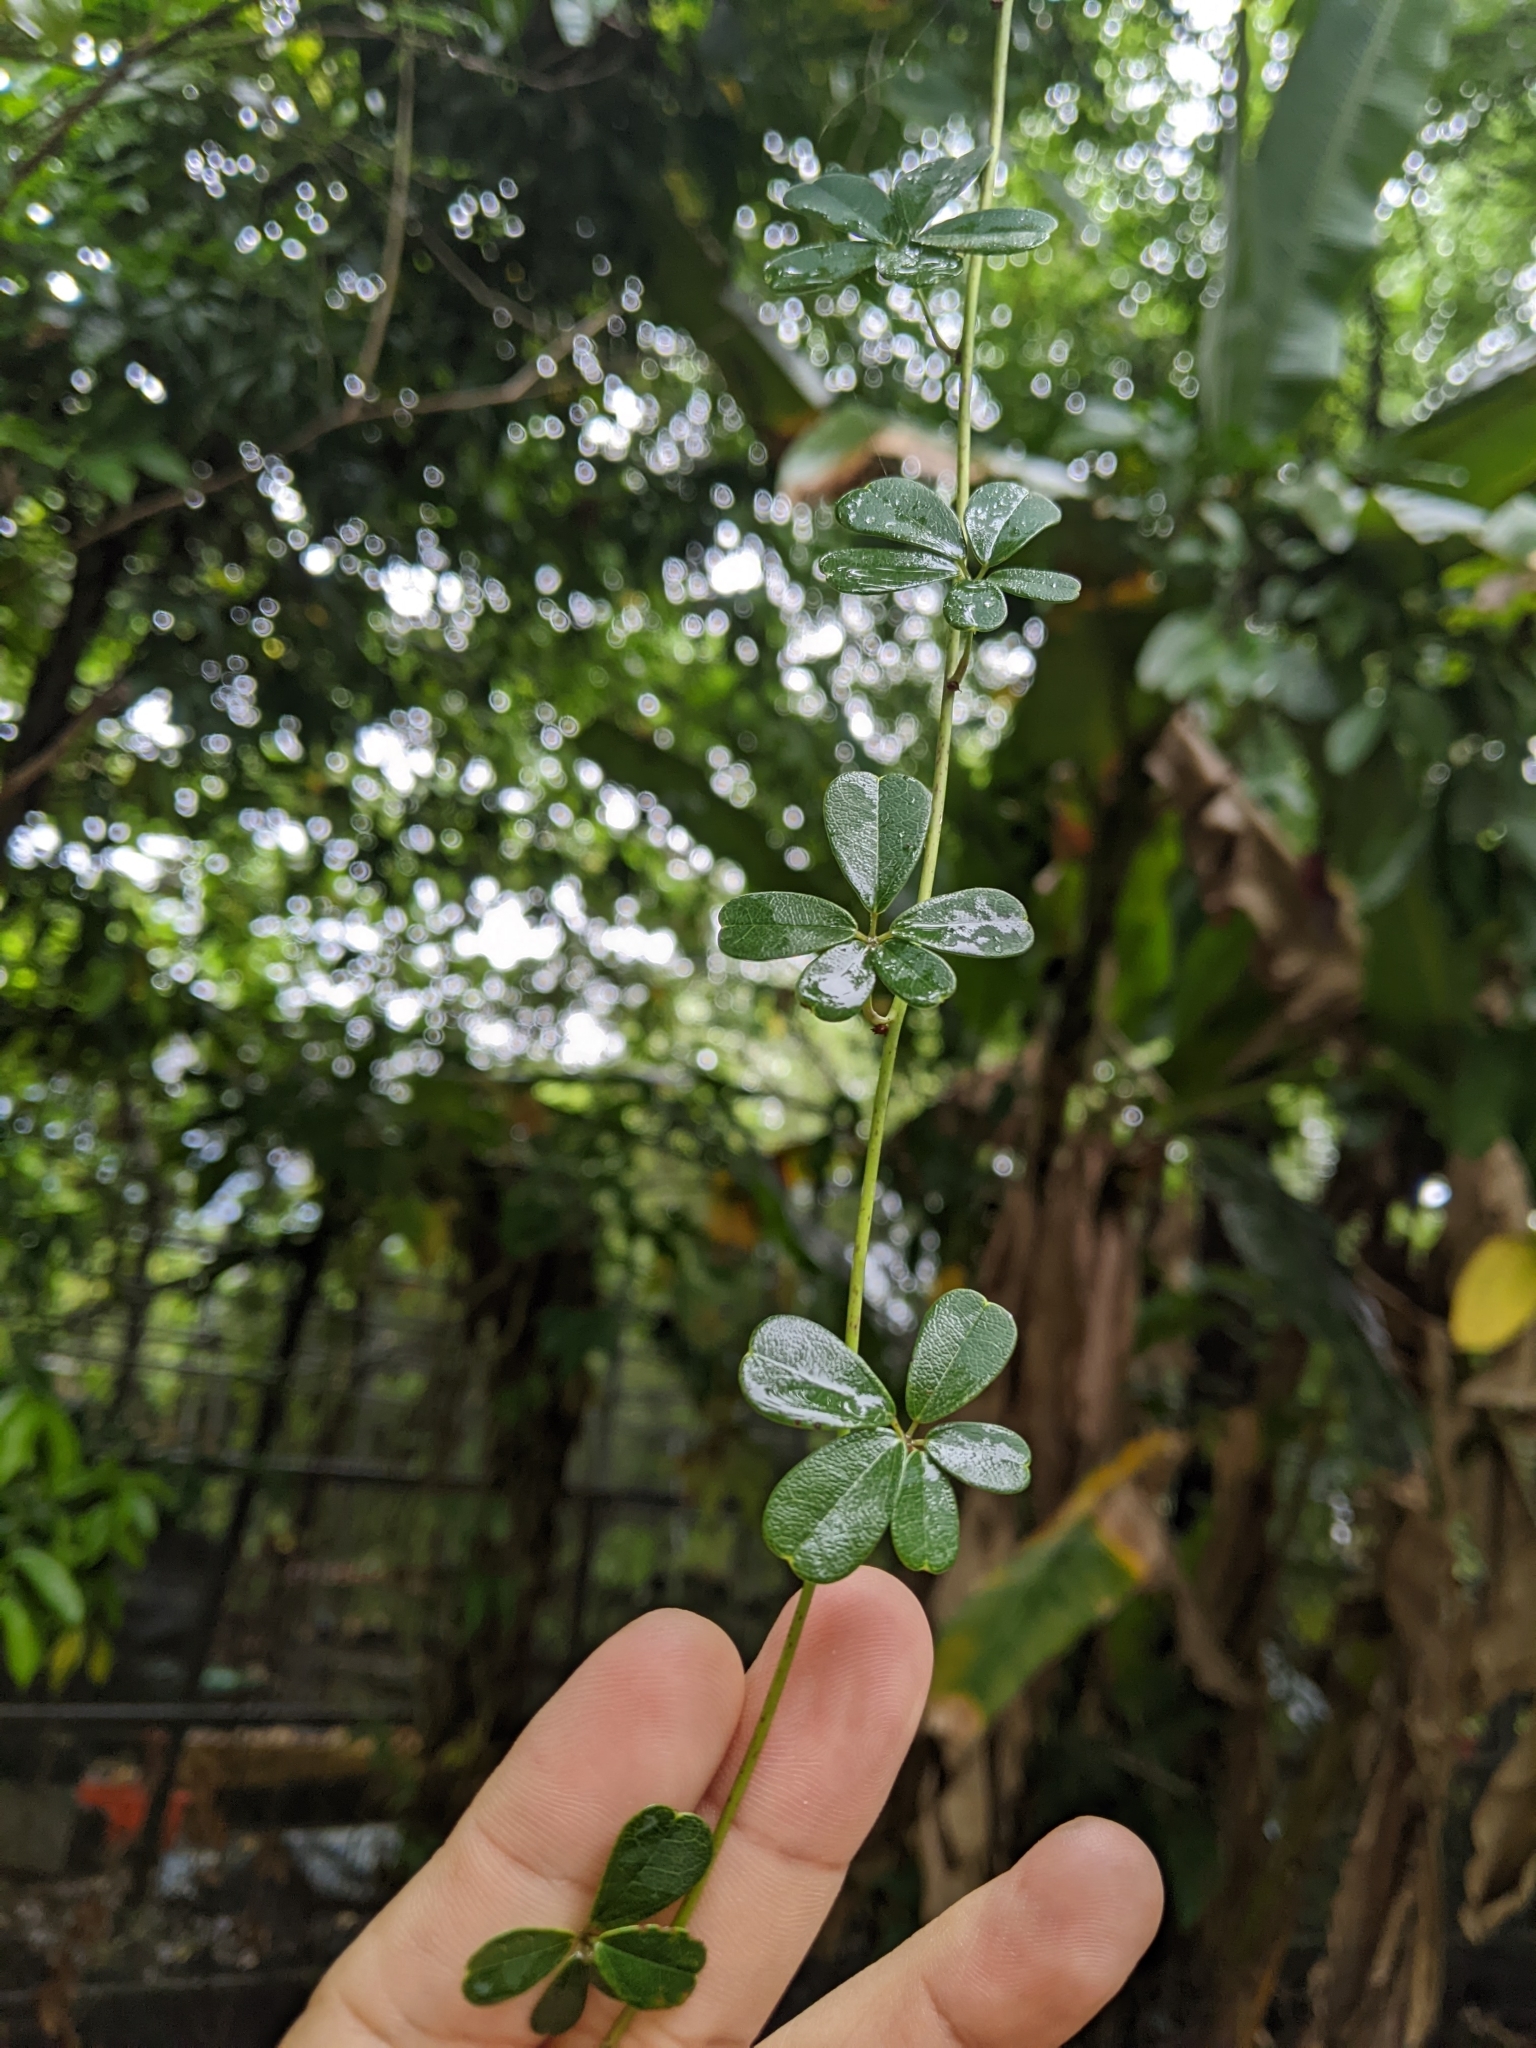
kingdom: Plantae
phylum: Tracheophyta
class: Magnoliopsida
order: Ranunculales
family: Lardizabalaceae
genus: Akebia
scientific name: Akebia longeracemosa
